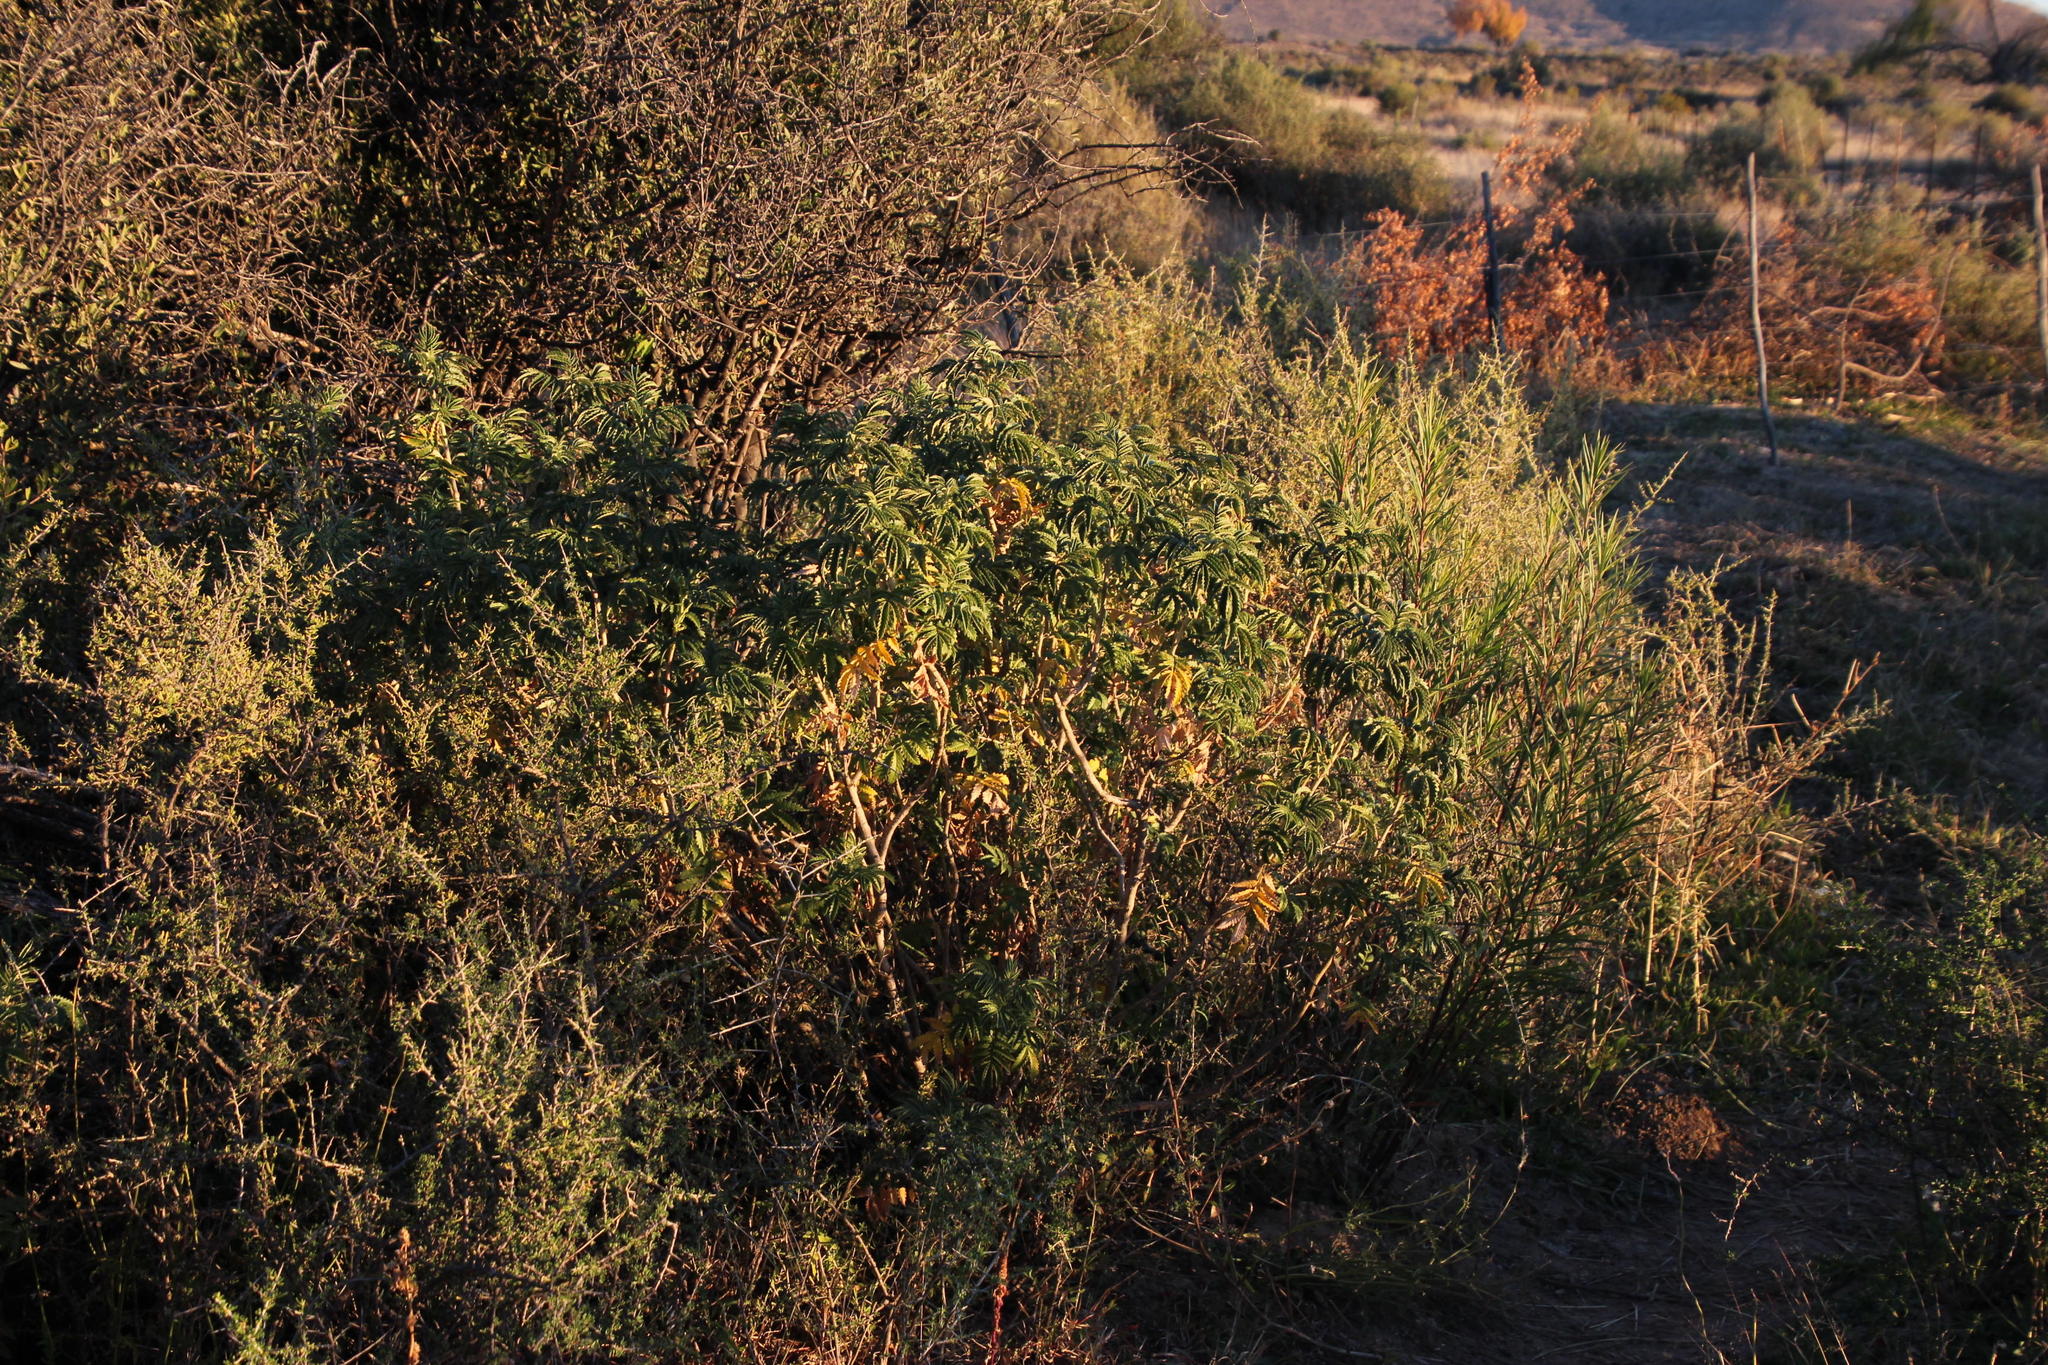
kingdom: Plantae
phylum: Tracheophyta
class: Magnoliopsida
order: Geraniales
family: Melianthaceae
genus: Melianthus
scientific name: Melianthus comosus
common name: Touch-me-not
